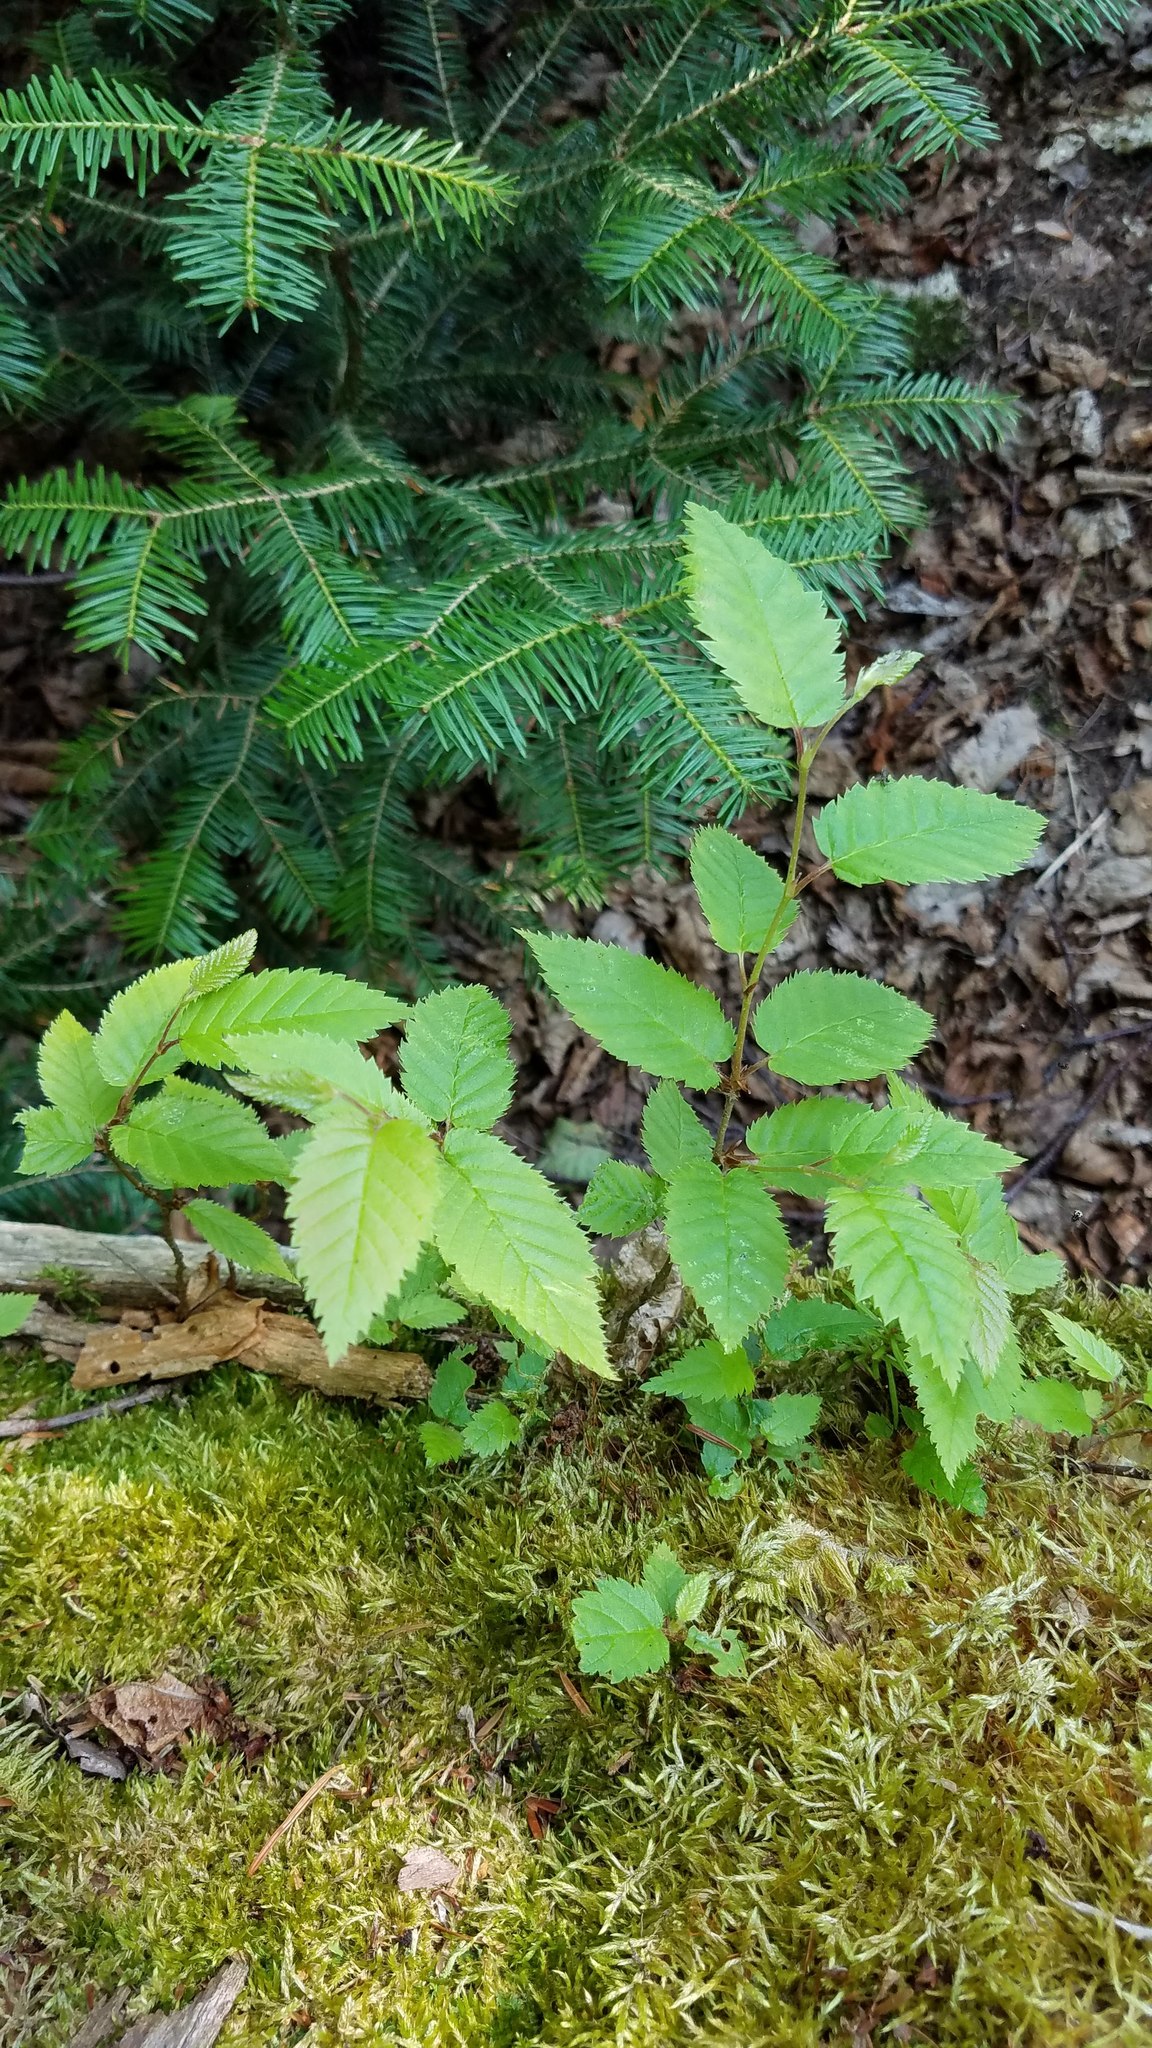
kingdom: Plantae
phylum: Tracheophyta
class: Magnoliopsida
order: Fagales
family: Betulaceae
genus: Betula
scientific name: Betula alleghaniensis
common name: Yellow birch
